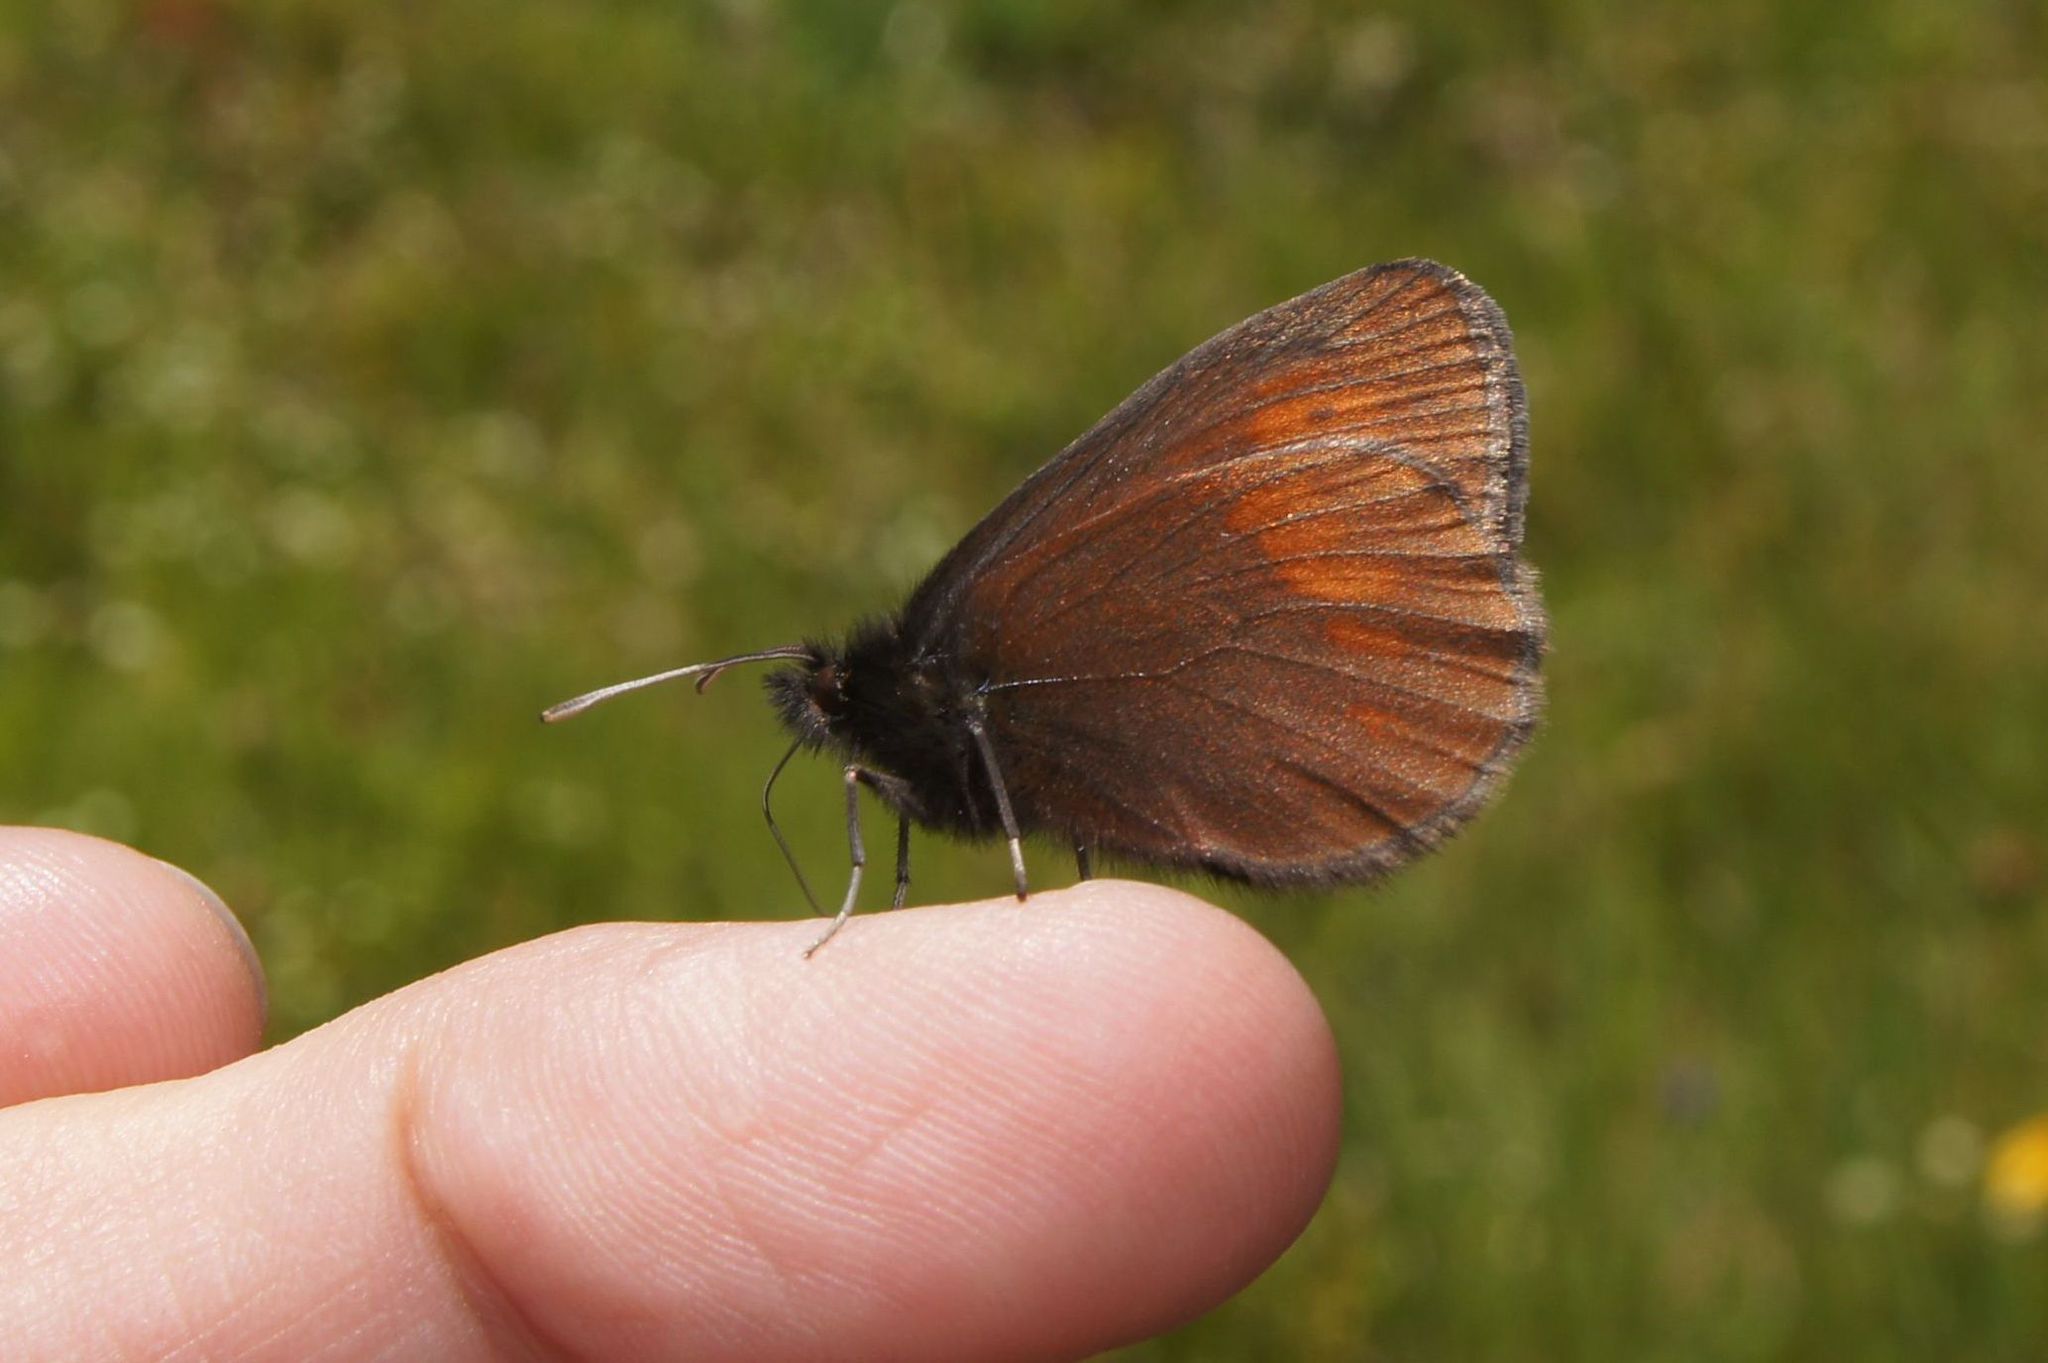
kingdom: Animalia
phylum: Arthropoda
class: Insecta
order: Lepidoptera
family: Nymphalidae
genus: Erebia
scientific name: Erebia manto
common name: Yellow-spotted ringlet
